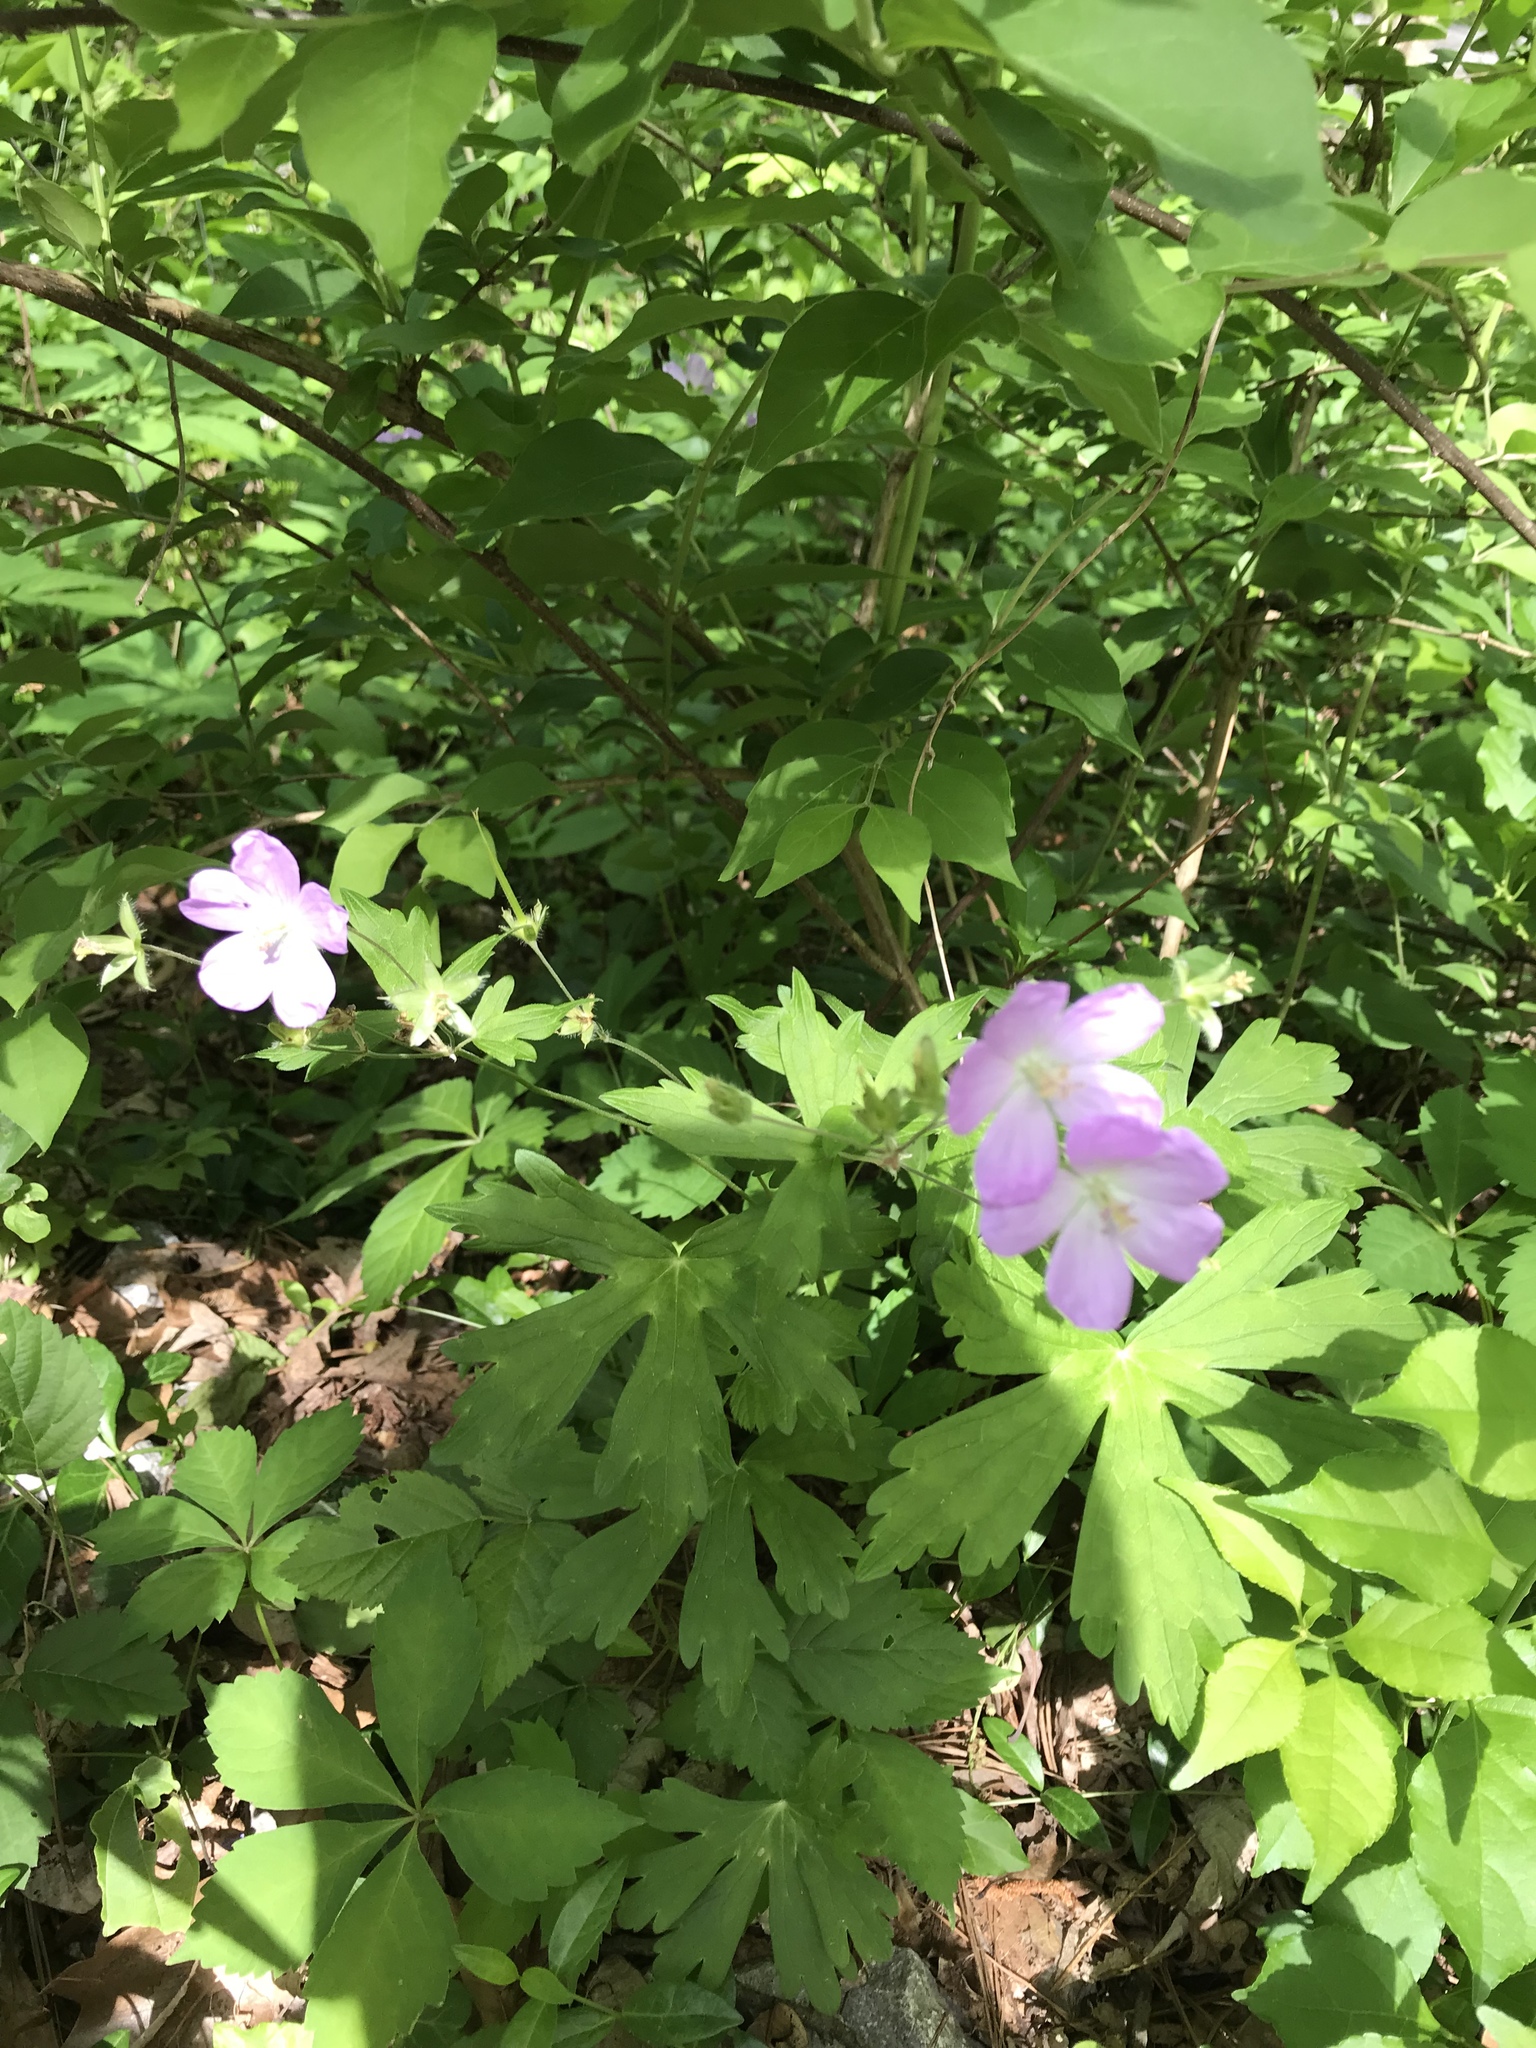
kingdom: Plantae
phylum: Tracheophyta
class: Magnoliopsida
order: Geraniales
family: Geraniaceae
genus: Geranium
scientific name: Geranium maculatum
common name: Spotted geranium
